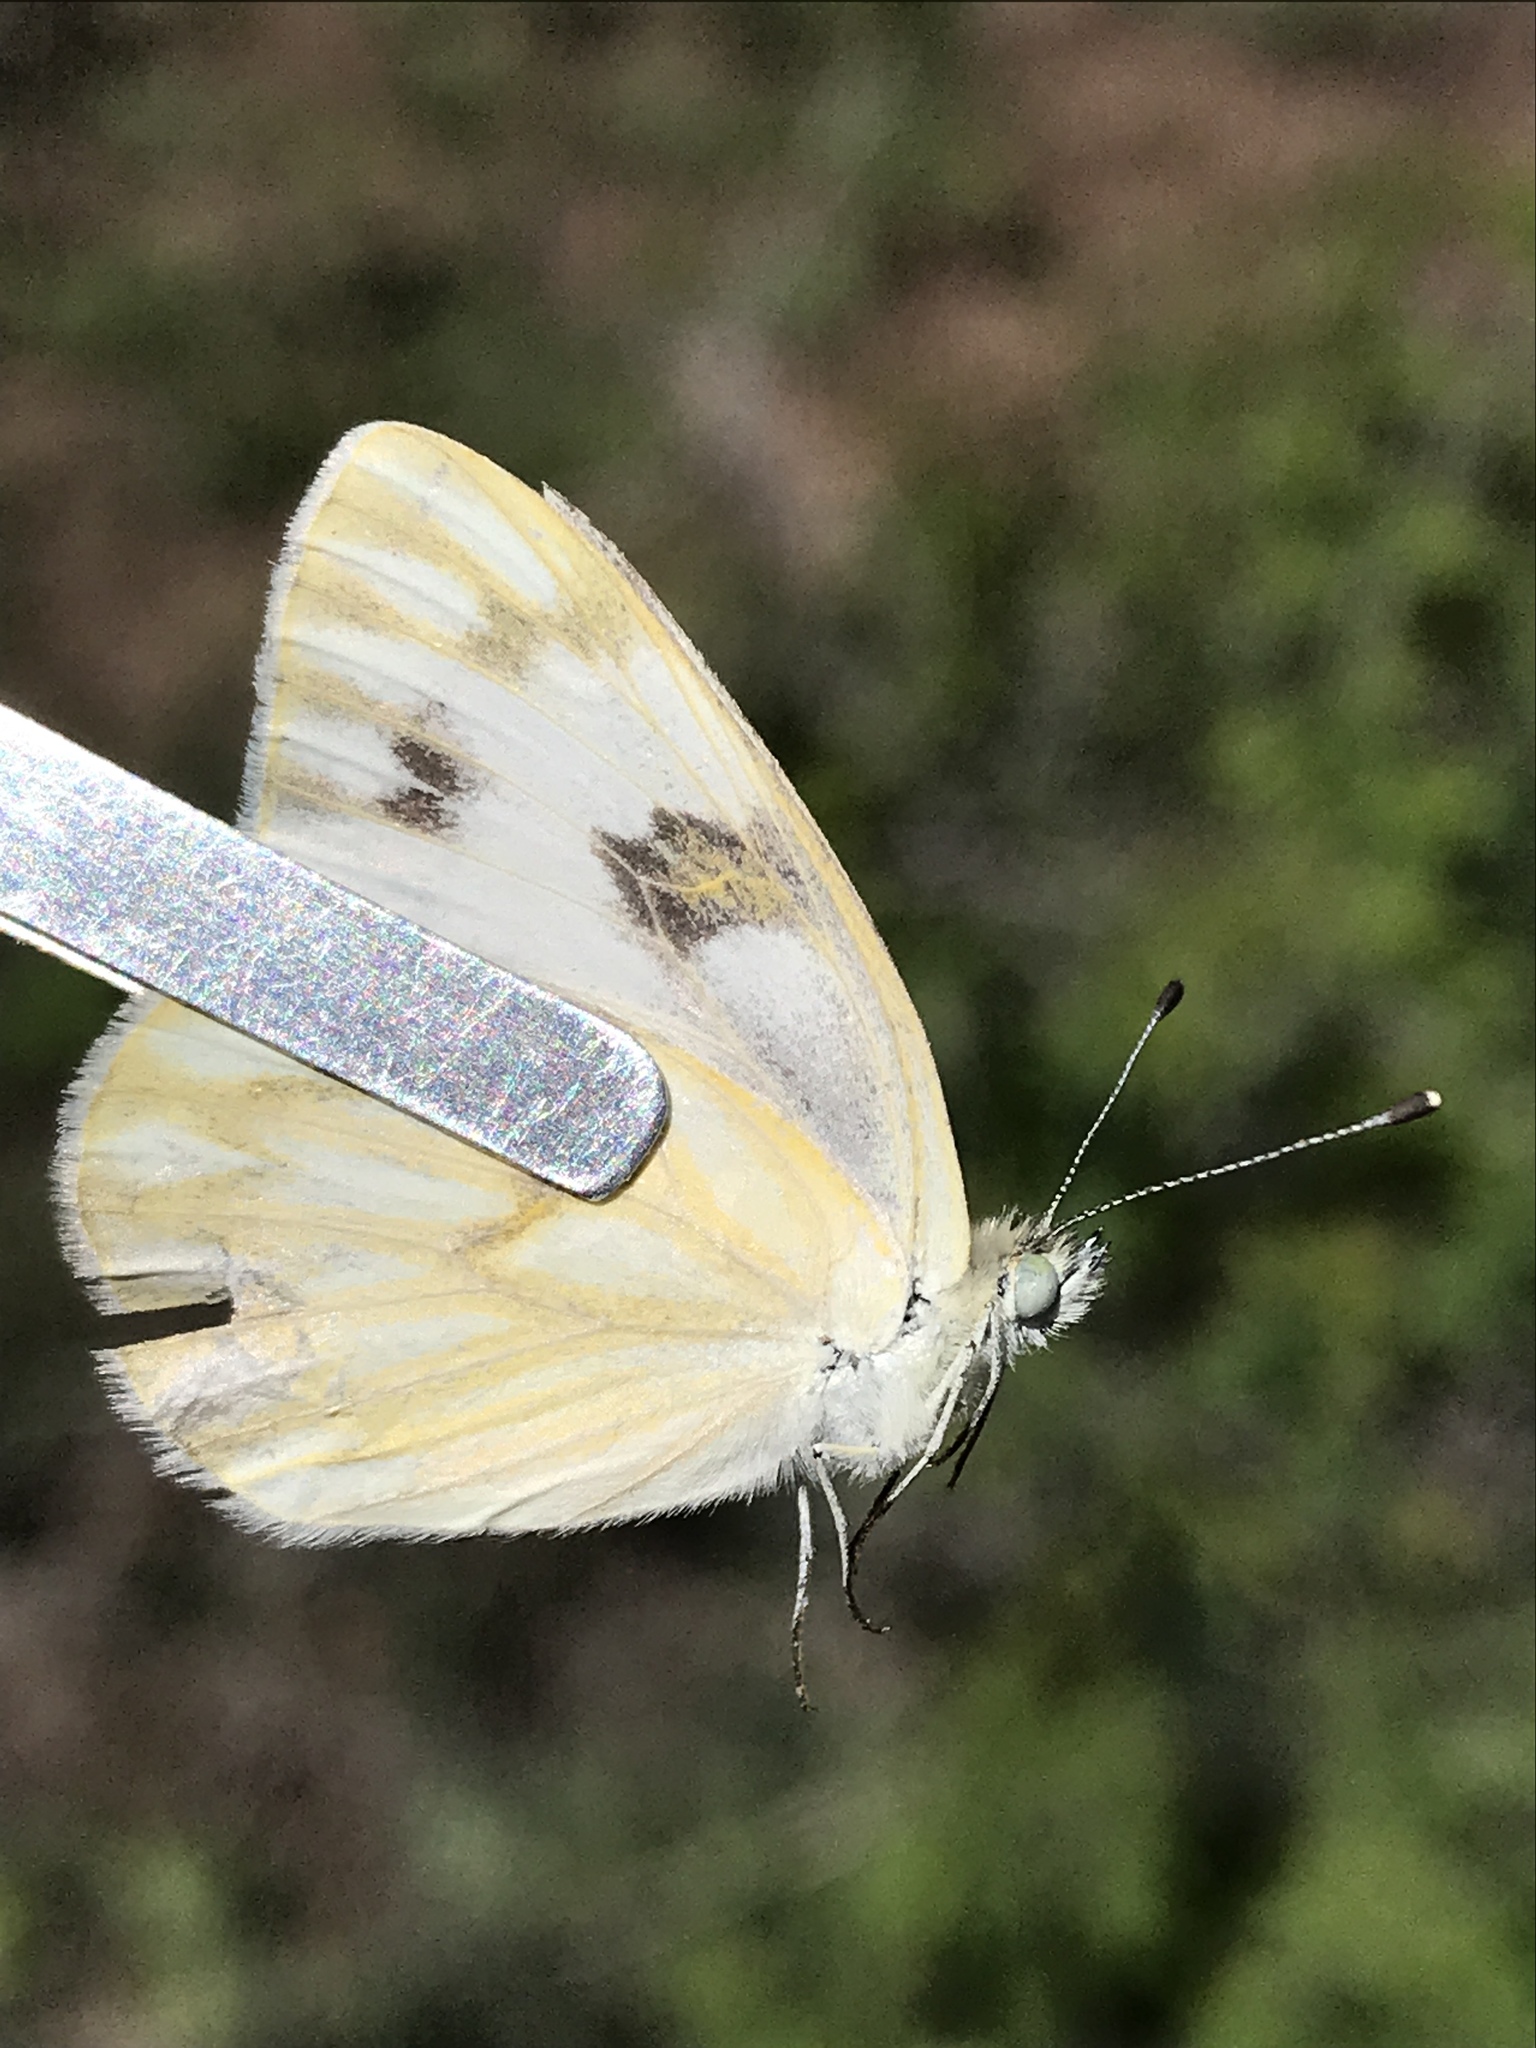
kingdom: Animalia
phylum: Arthropoda
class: Insecta
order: Lepidoptera
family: Pieridae
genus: Pontia
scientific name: Pontia protodice
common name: Checkered white
